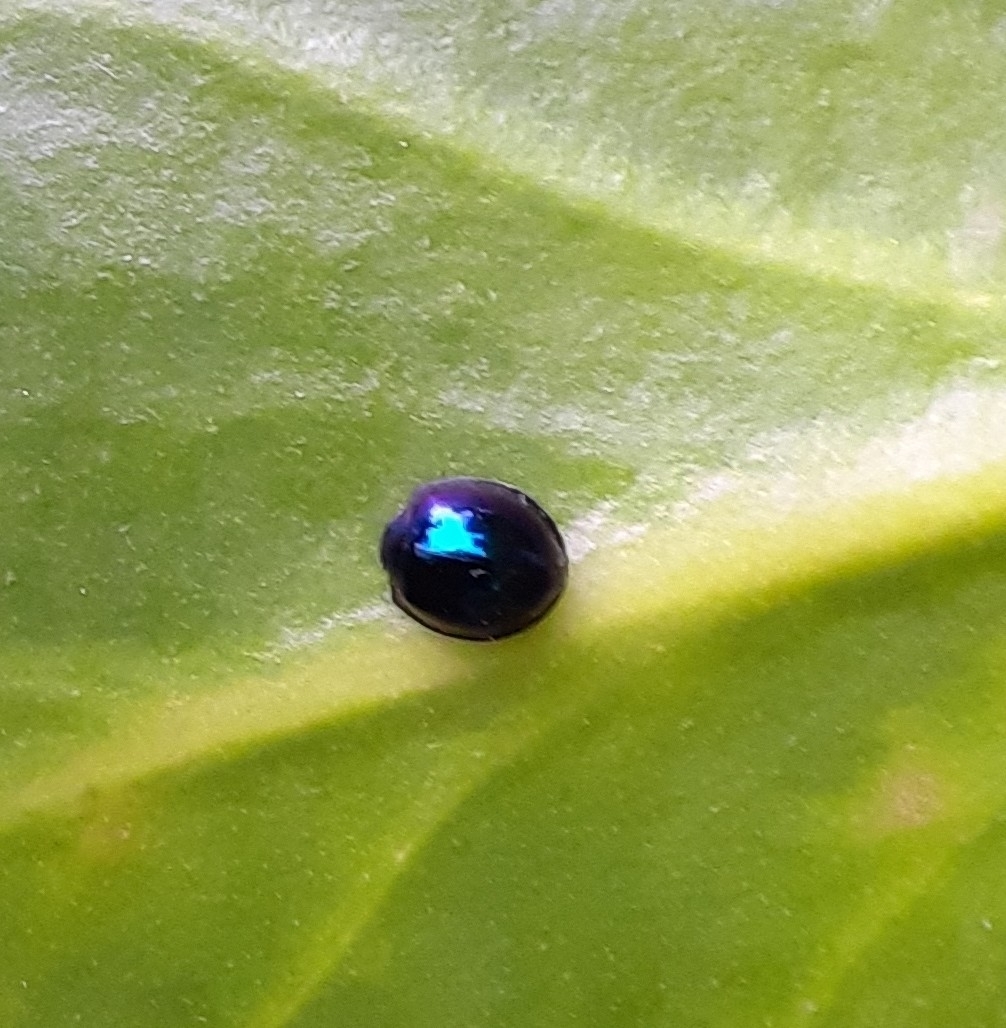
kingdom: Animalia
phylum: Arthropoda
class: Insecta
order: Coleoptera
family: Coccinellidae
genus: Halmus
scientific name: Halmus chalybeus
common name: Steel blue ladybird beetle
